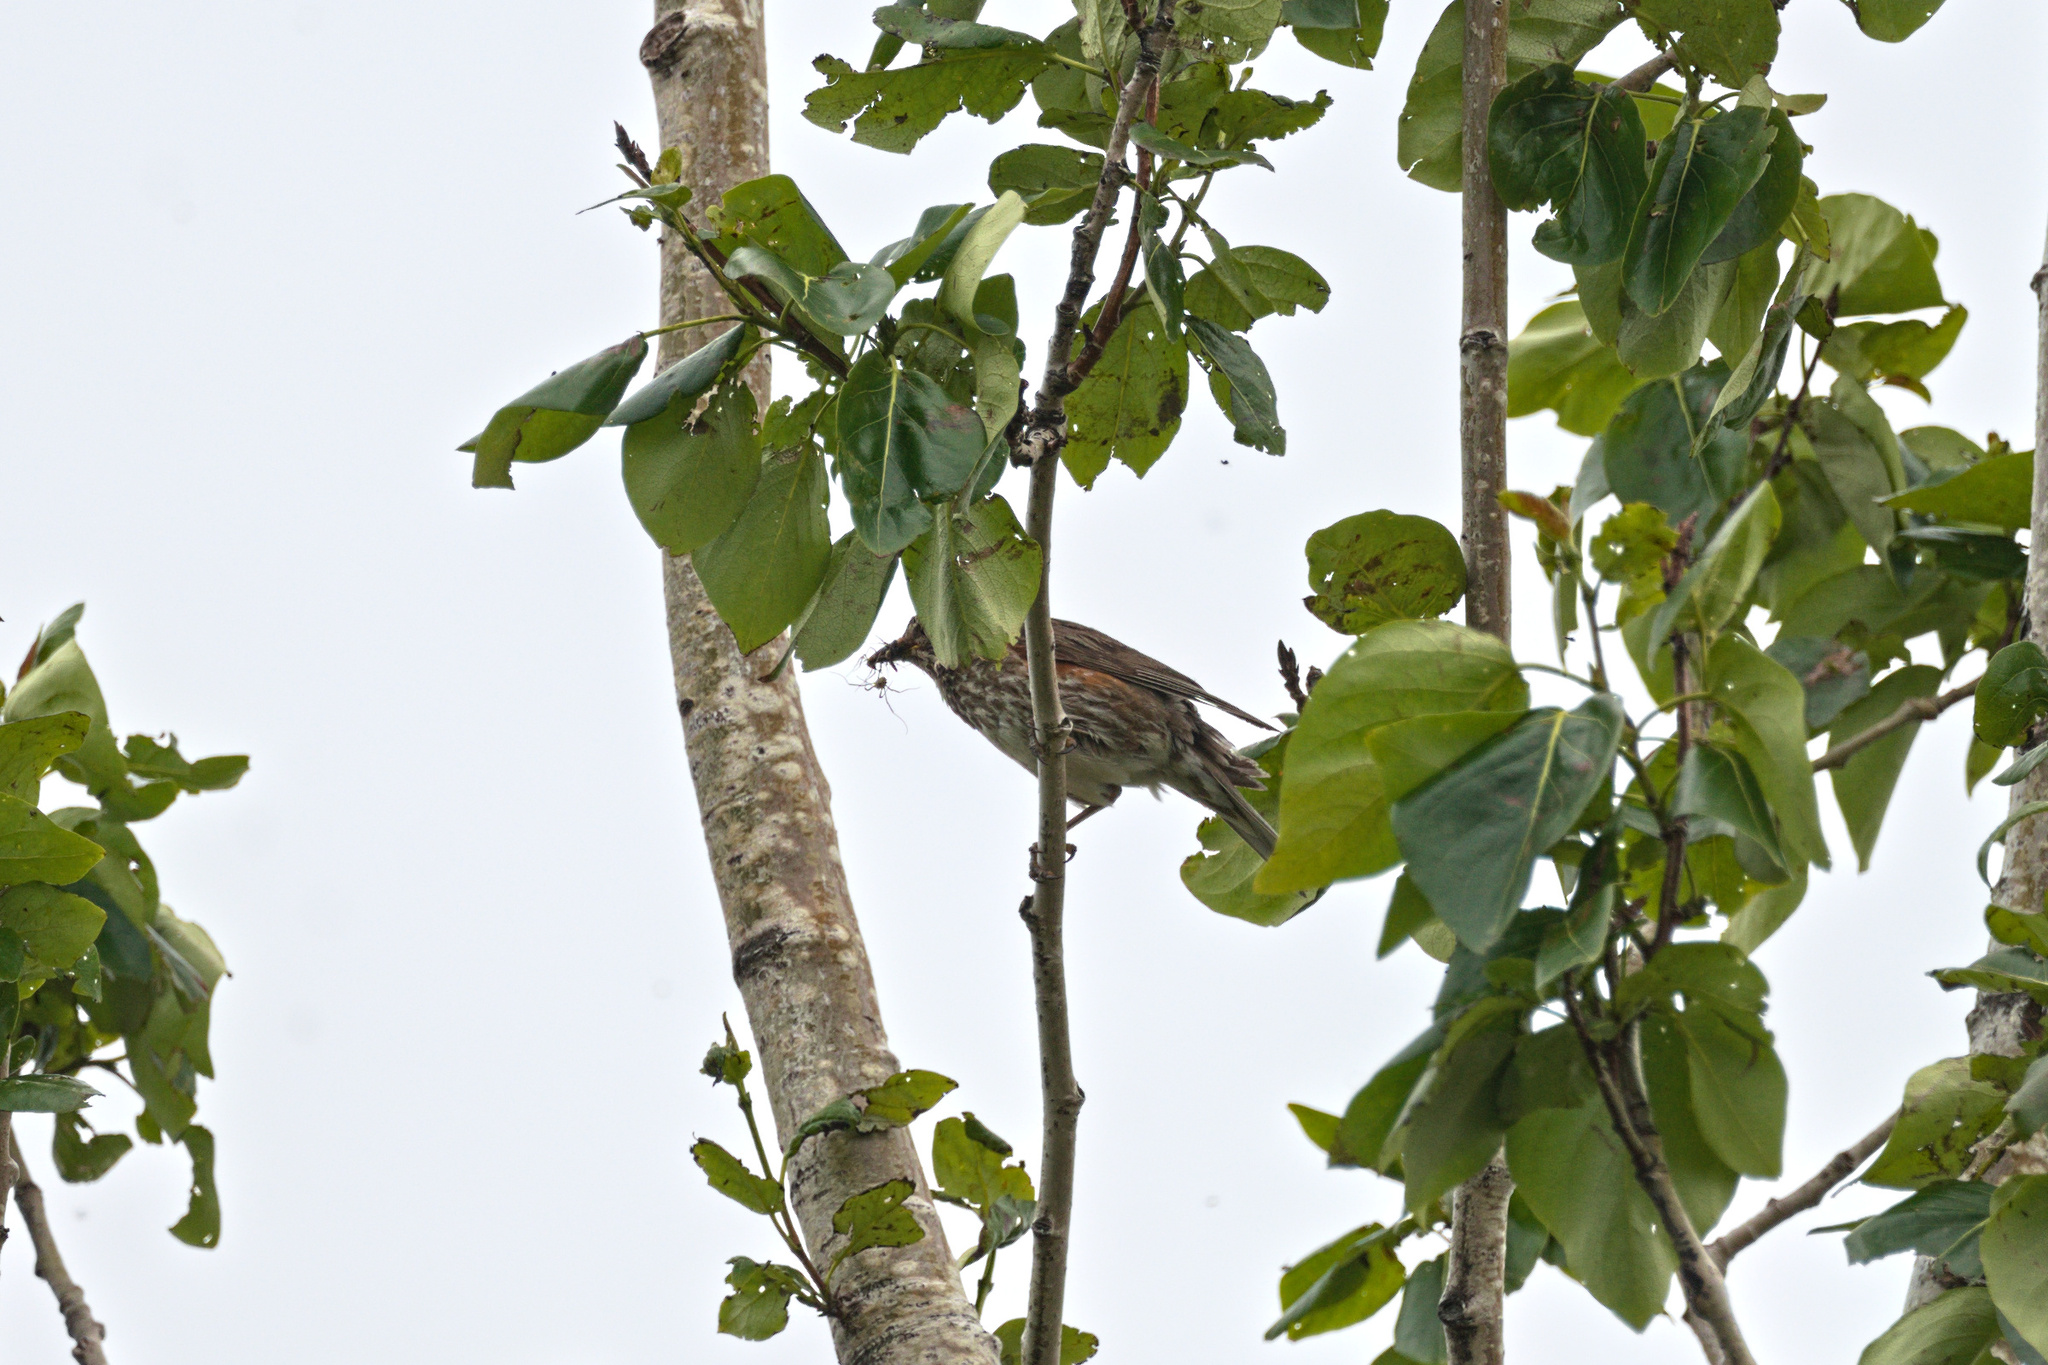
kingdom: Animalia
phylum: Chordata
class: Aves
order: Passeriformes
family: Turdidae
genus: Turdus
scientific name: Turdus iliacus
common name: Redwing
